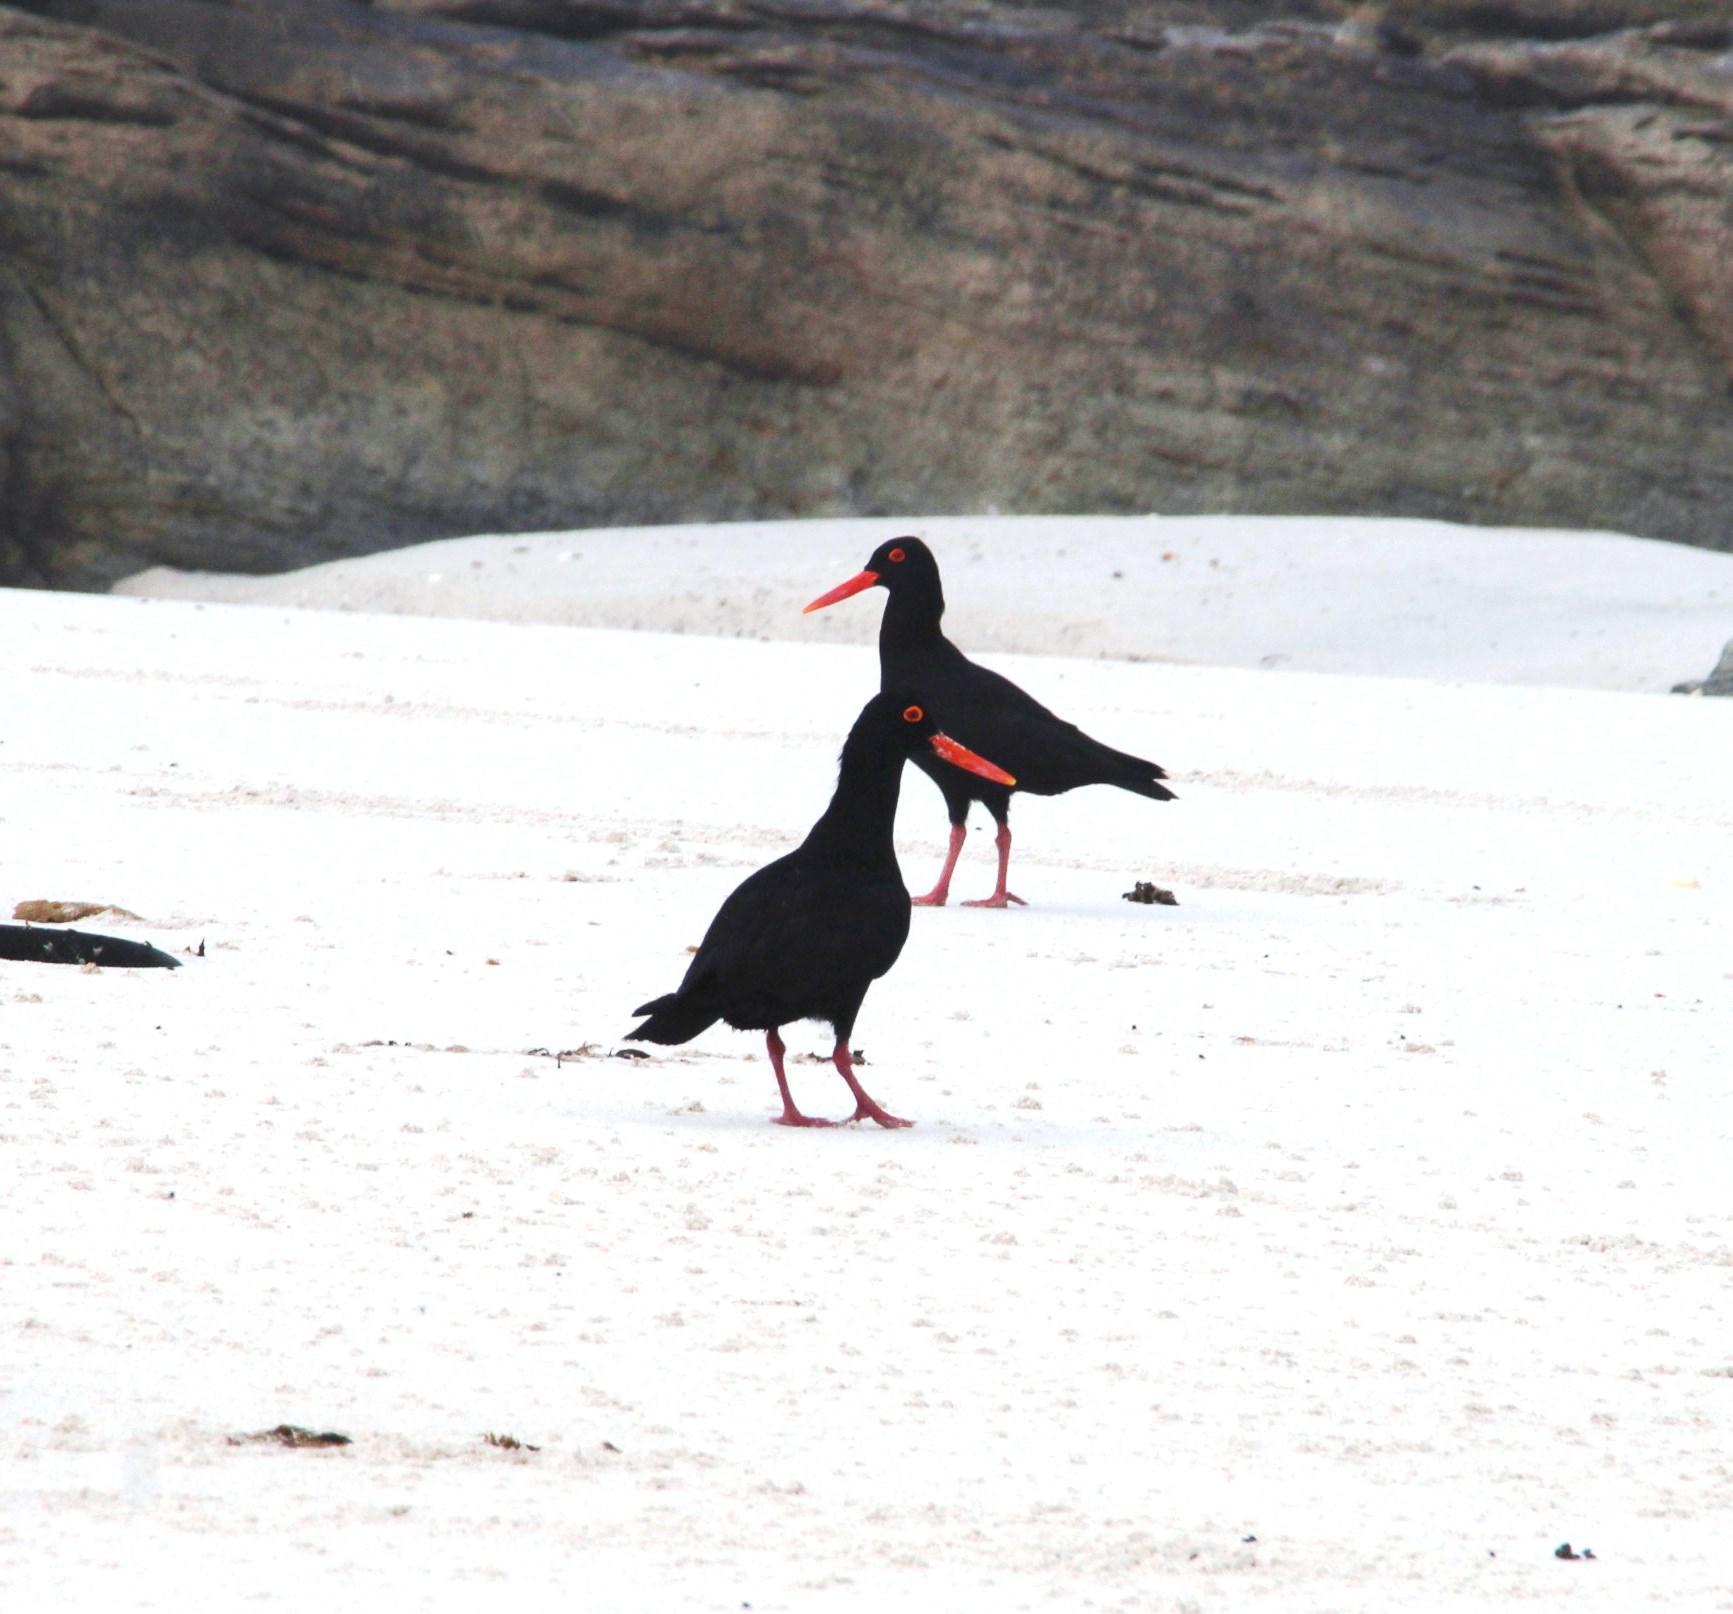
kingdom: Animalia
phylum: Chordata
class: Aves
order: Charadriiformes
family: Haematopodidae
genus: Haematopus
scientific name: Haematopus moquini
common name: African oystercatcher
